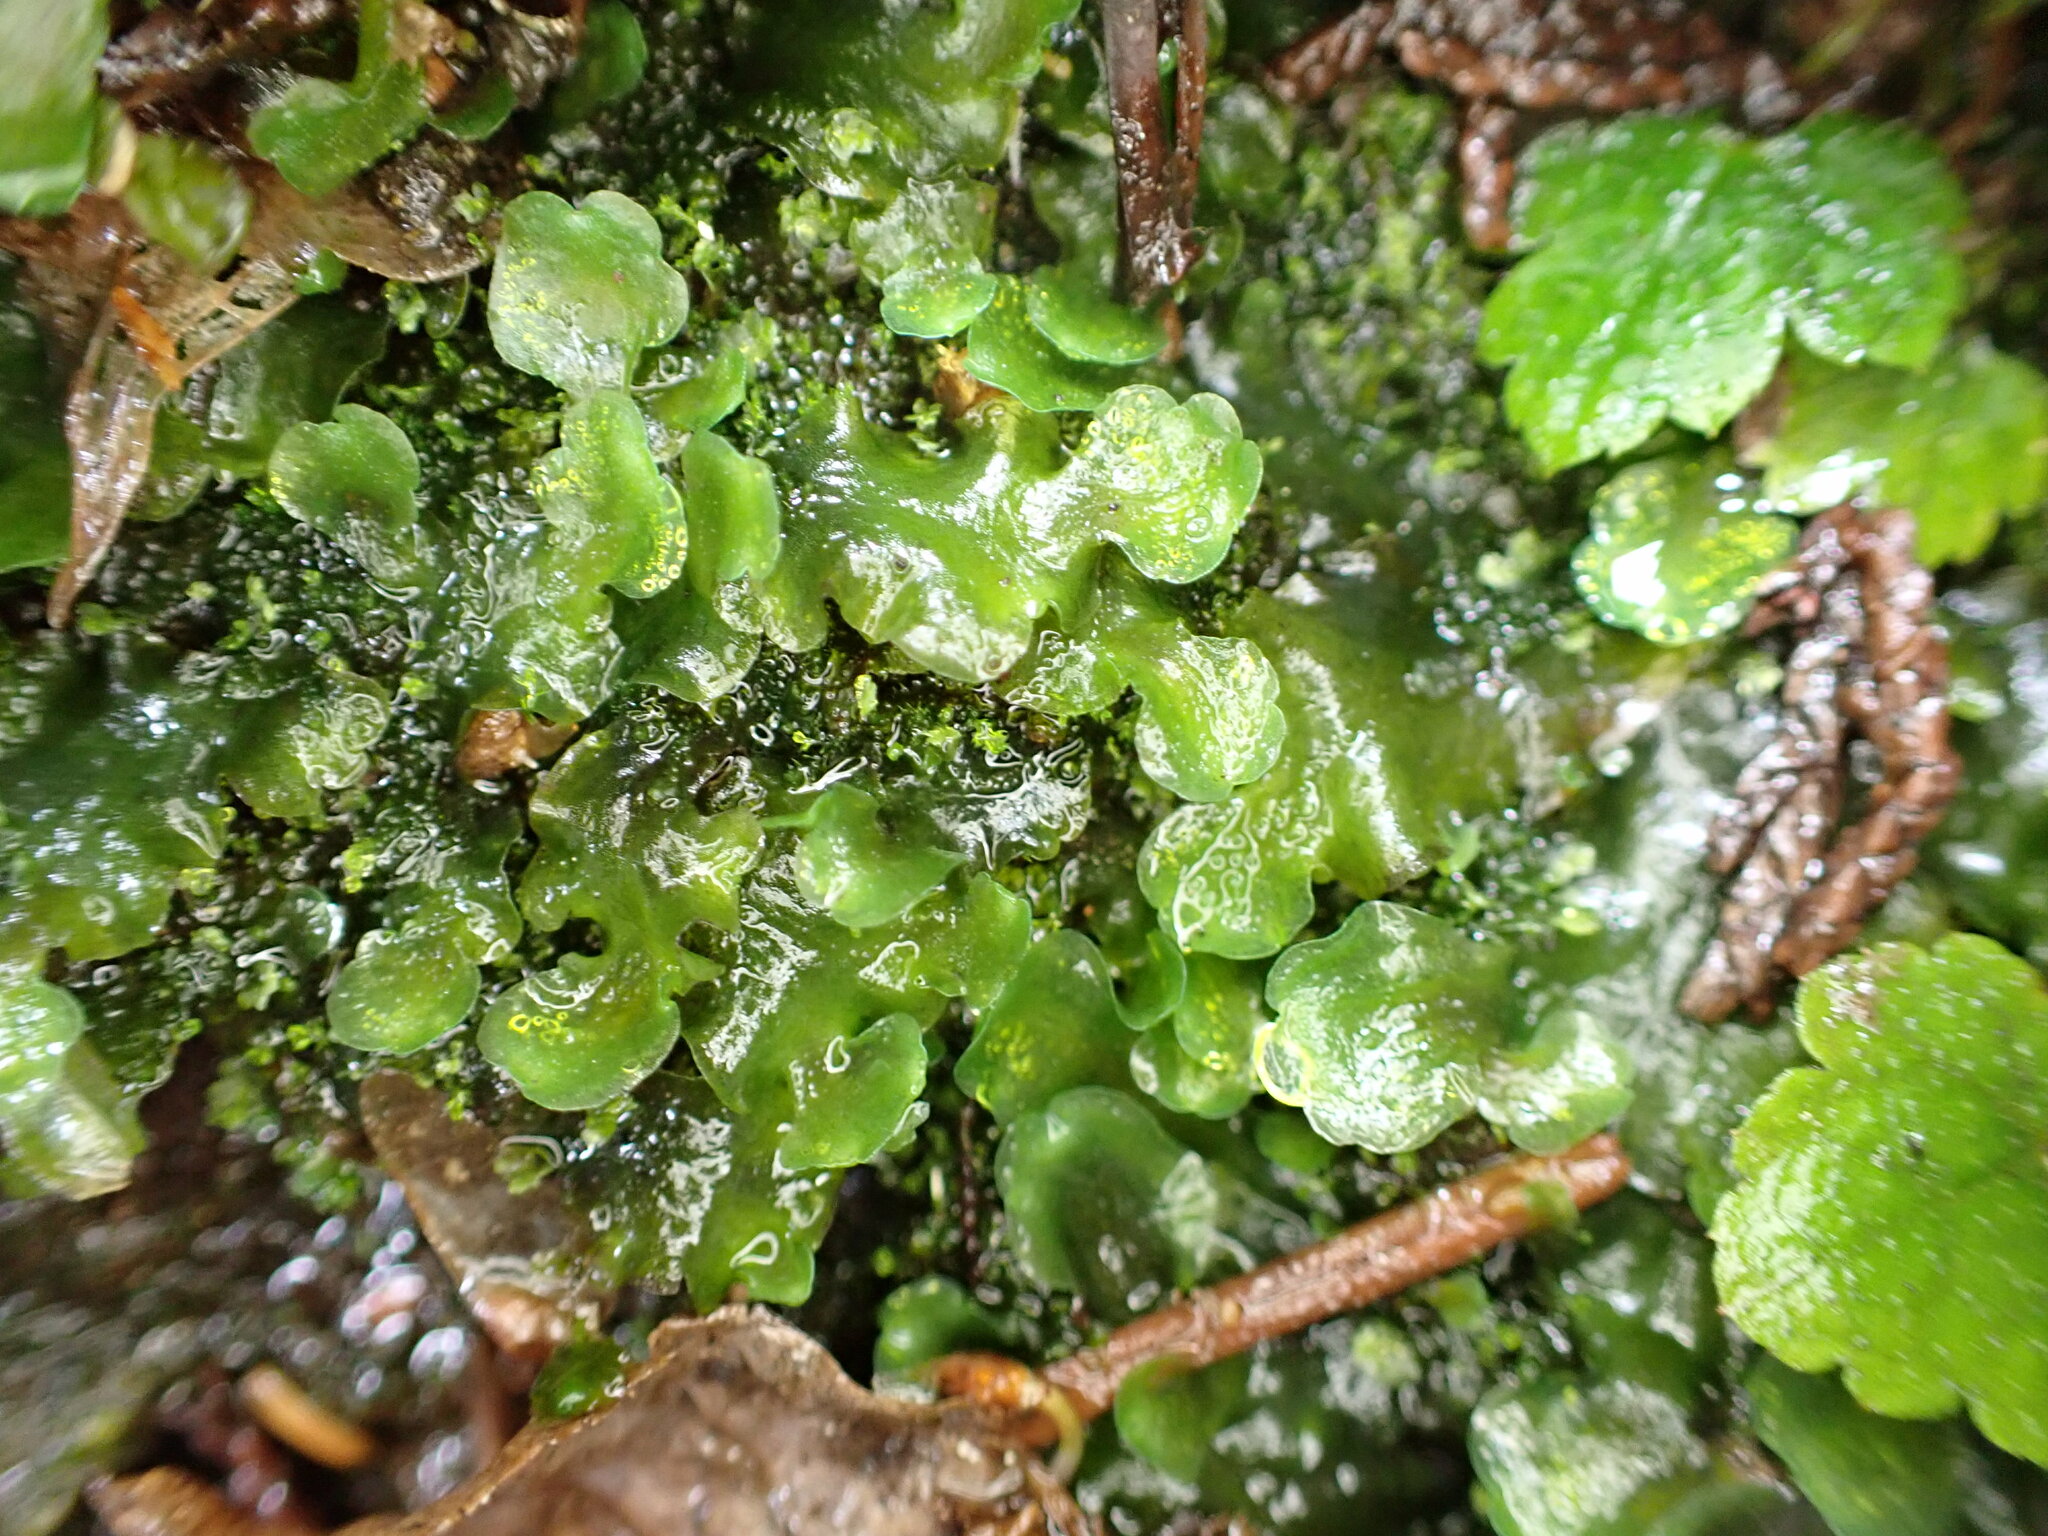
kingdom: Plantae
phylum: Marchantiophyta
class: Jungermanniopsida
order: Pelliales
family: Pelliaceae
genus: Pellia
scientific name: Pellia neesiana
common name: Nees  pellia
